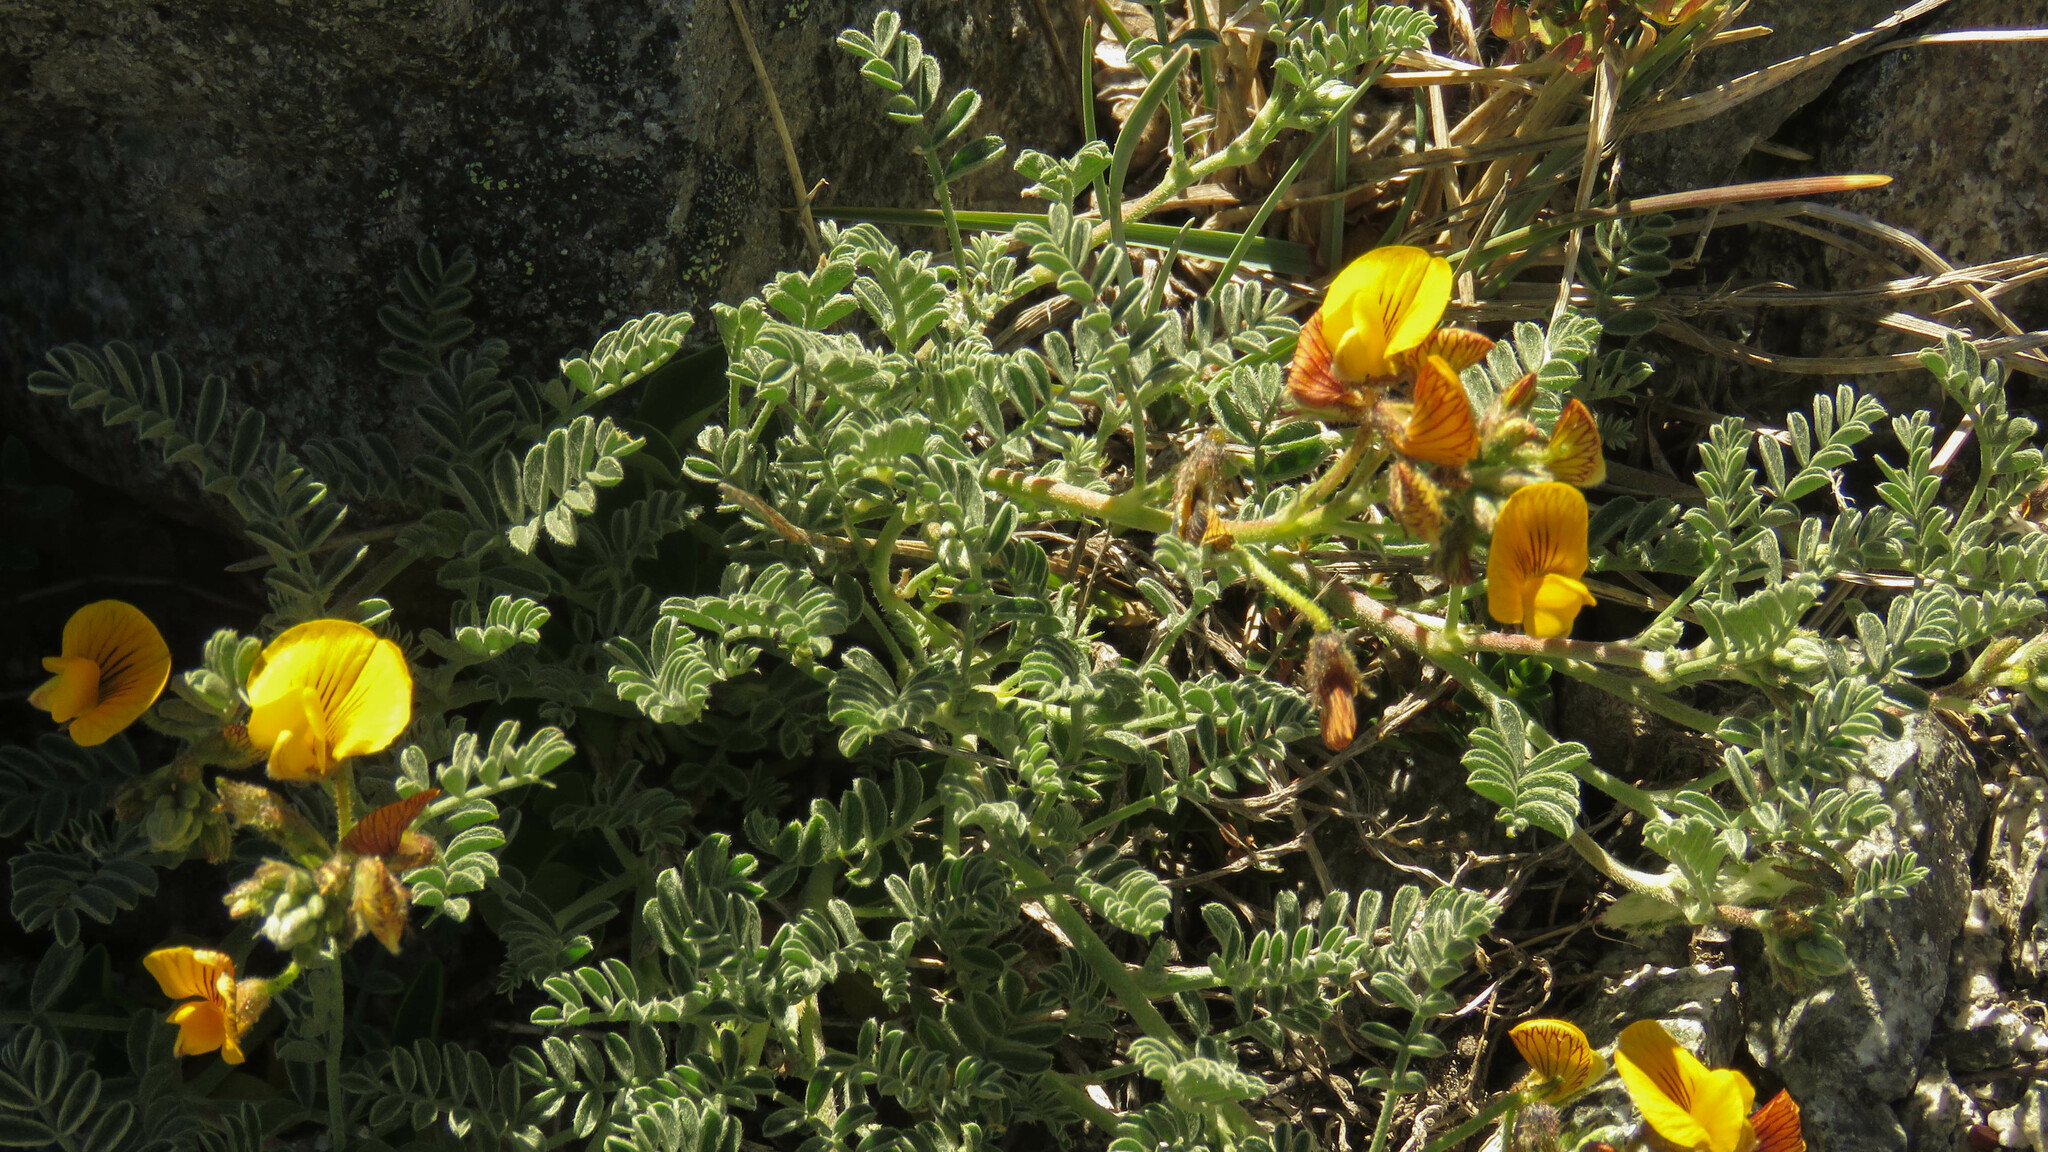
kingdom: Plantae
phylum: Tracheophyta
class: Magnoliopsida
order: Fabales
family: Fabaceae
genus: Adesmia
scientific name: Adesmia corymbosa
